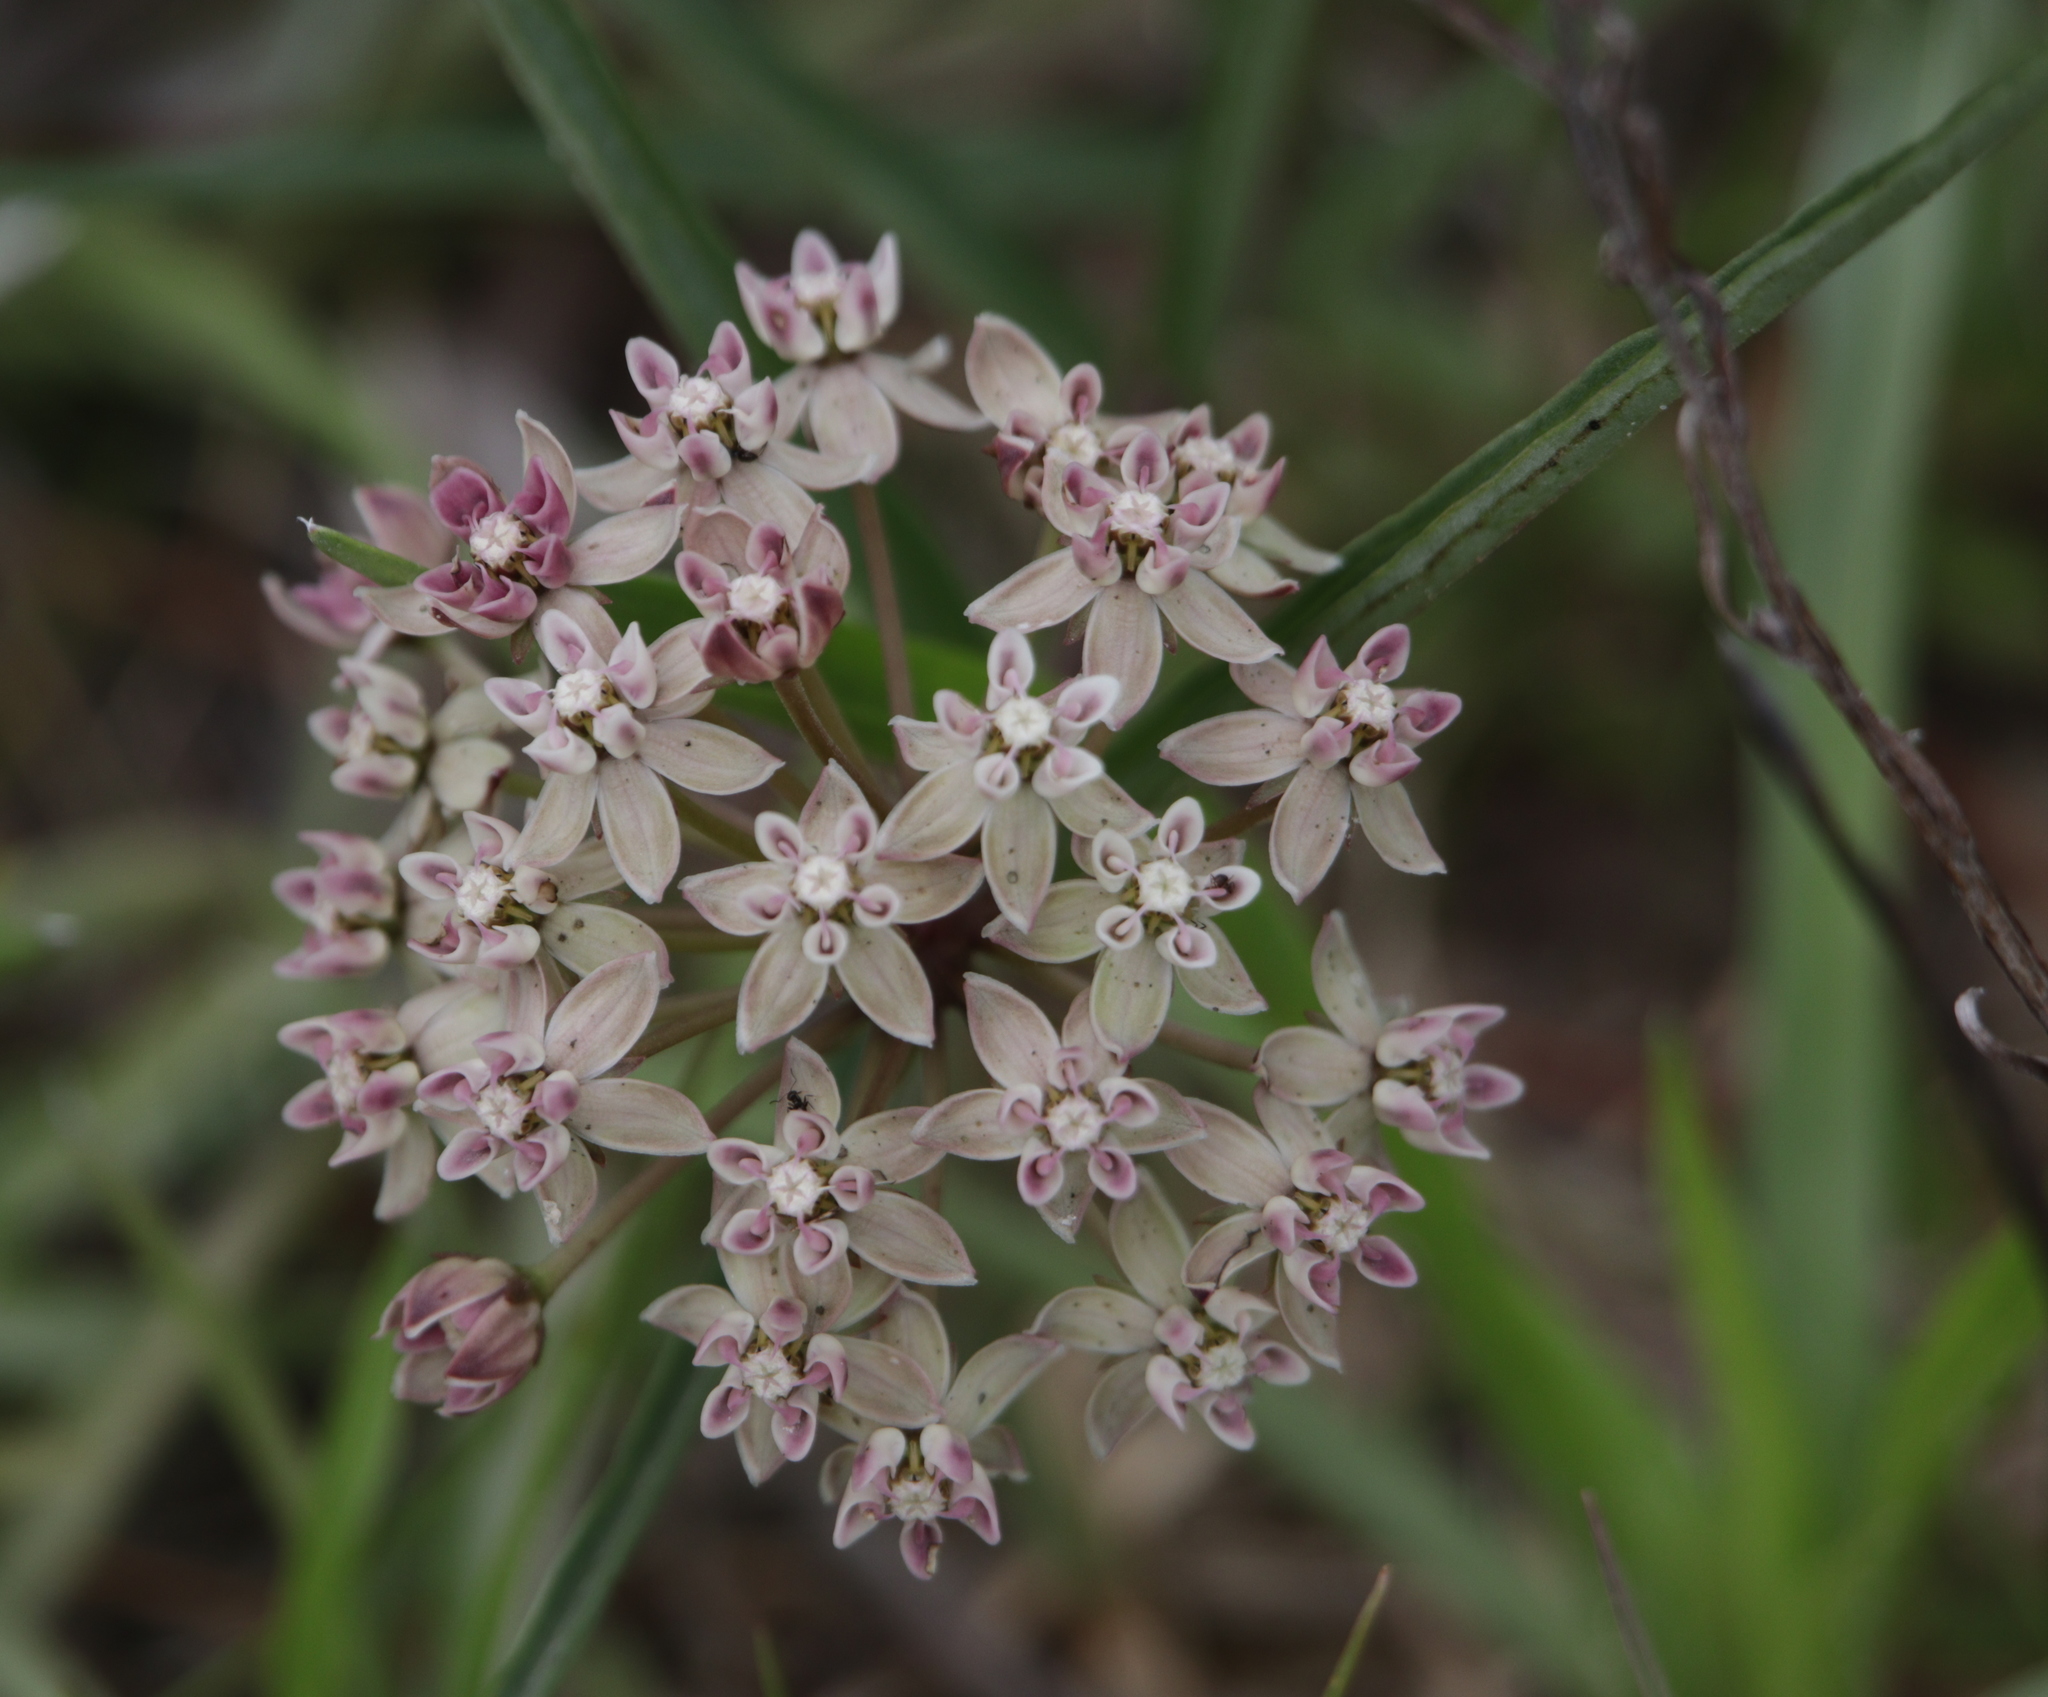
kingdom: Plantae
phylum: Tracheophyta
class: Magnoliopsida
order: Gentianales
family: Apocynaceae
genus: Asclepias
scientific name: Asclepias michauxii
